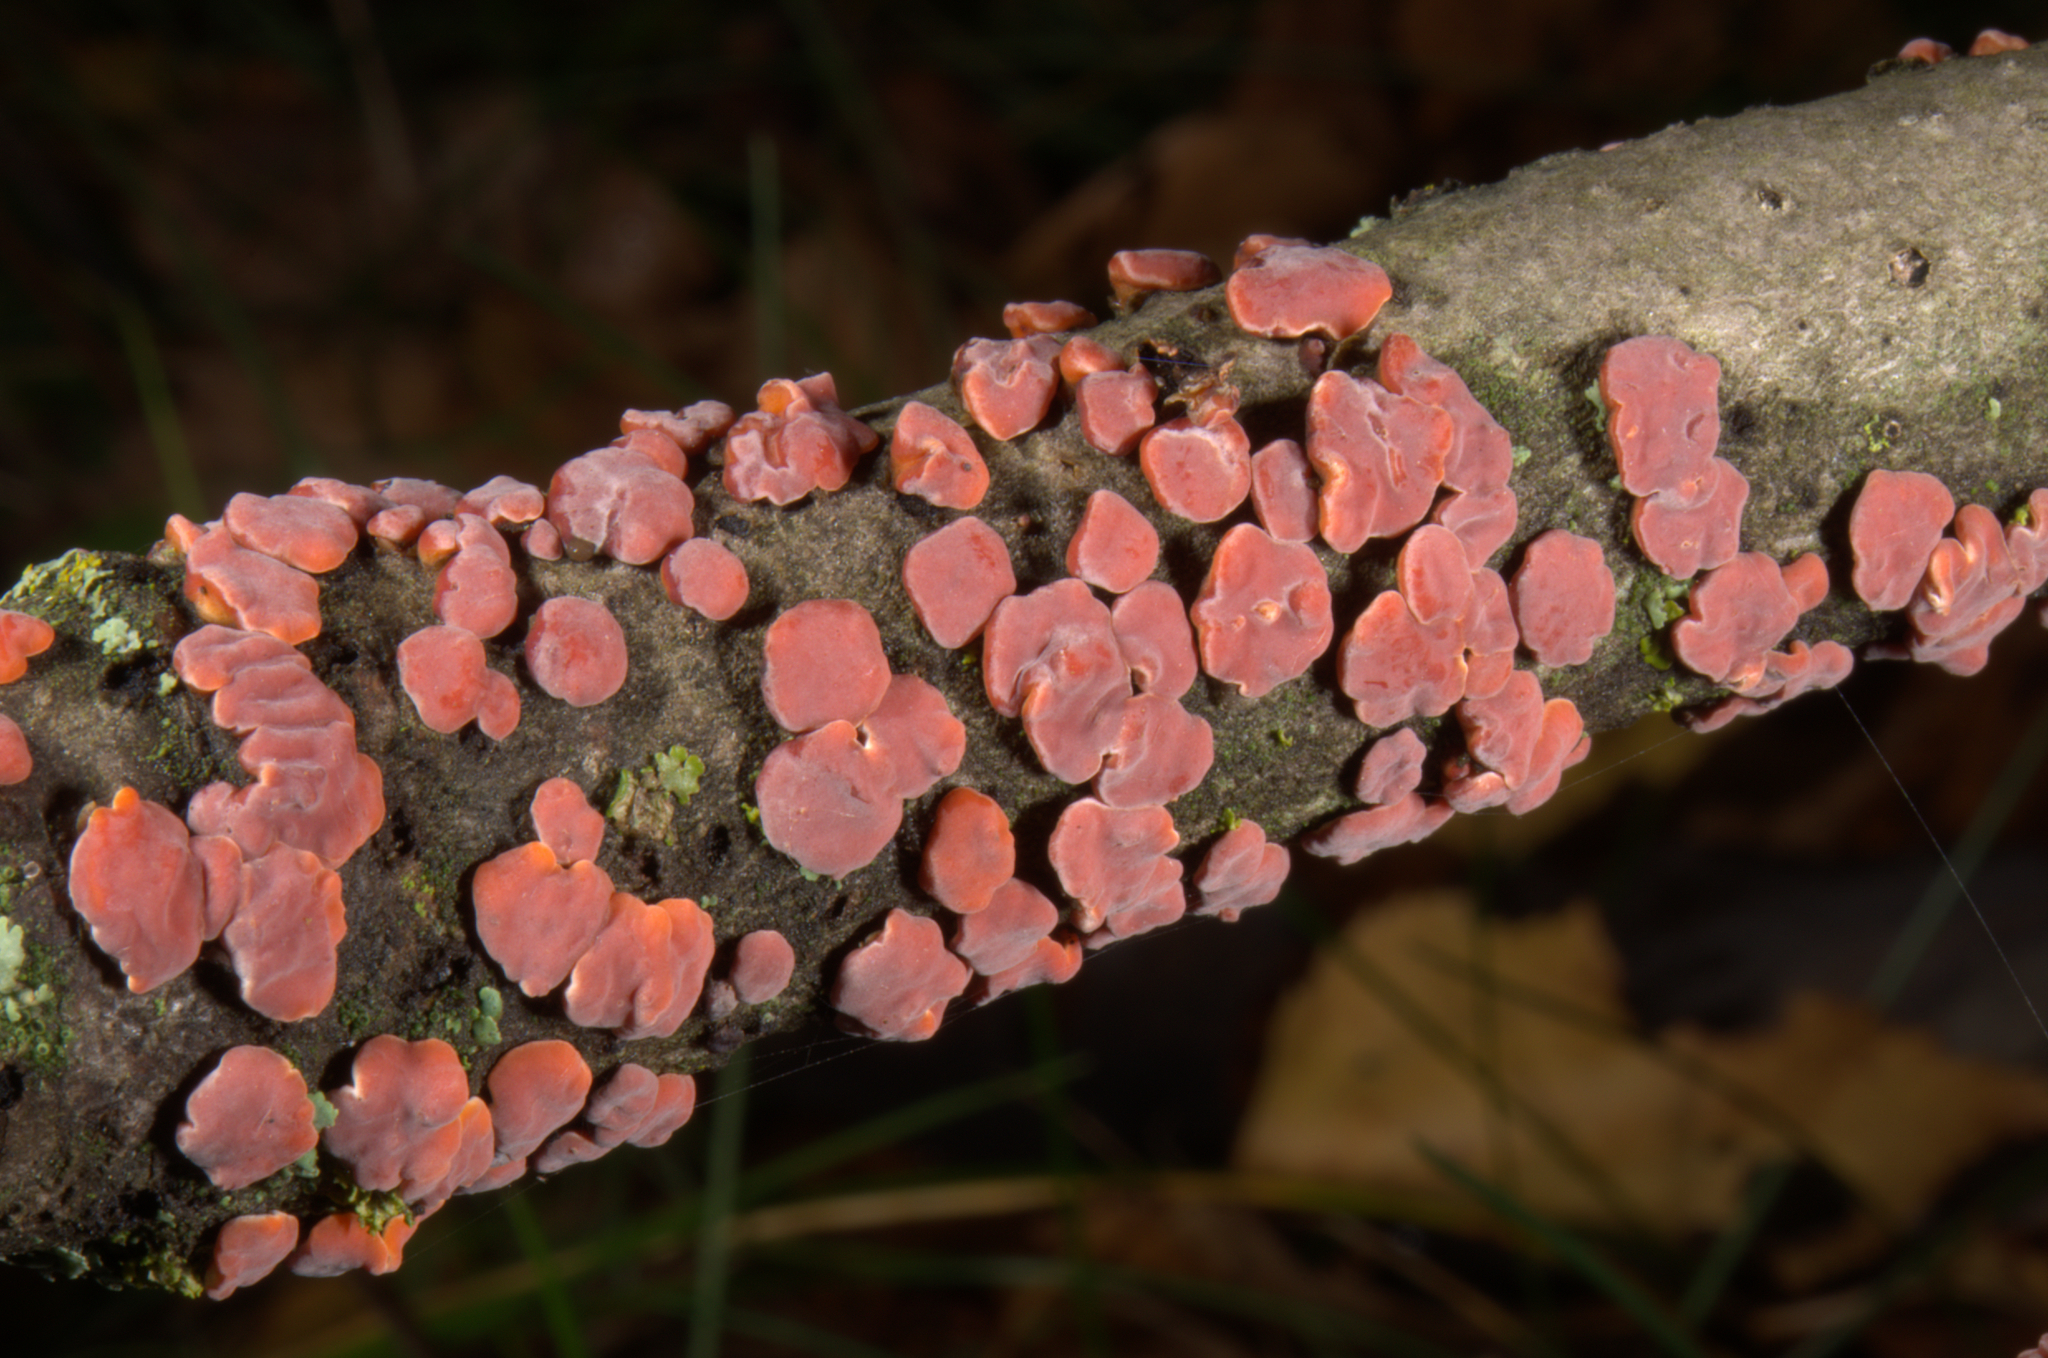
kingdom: Fungi
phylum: Basidiomycota
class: Agaricomycetes
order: Russulales
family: Peniophoraceae
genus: Peniophora
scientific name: Peniophora rufa
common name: Red tree brain fungus
